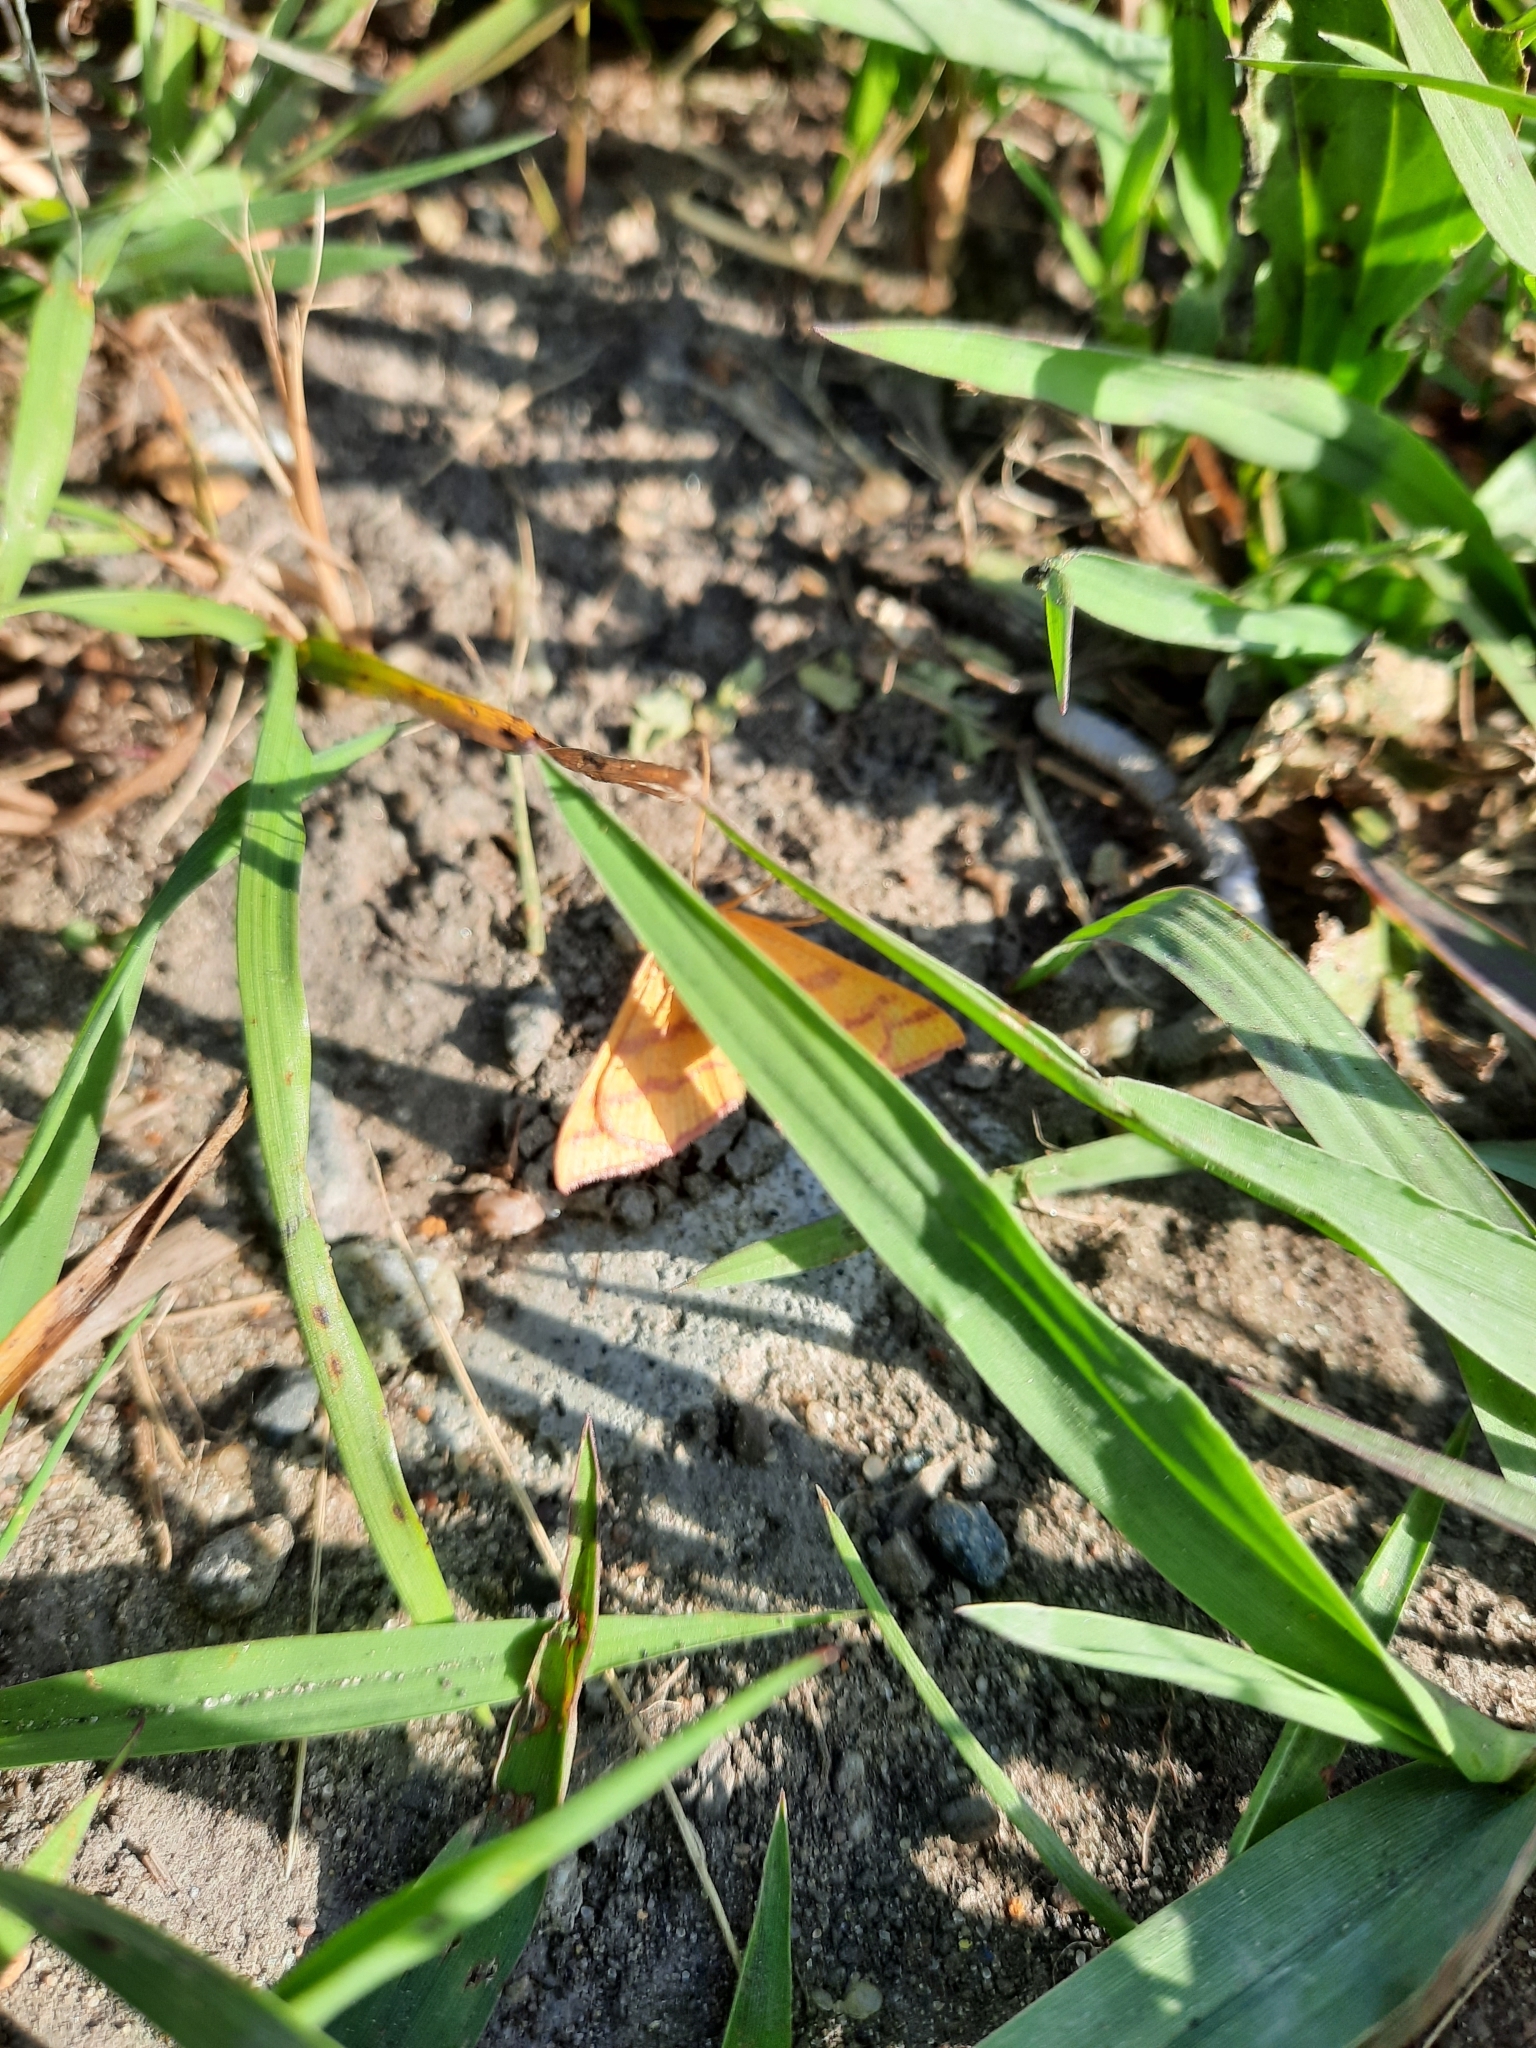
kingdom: Animalia
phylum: Arthropoda
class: Insecta
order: Lepidoptera
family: Geometridae
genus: Haematopis
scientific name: Haematopis grataria
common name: Chickweed geometer
